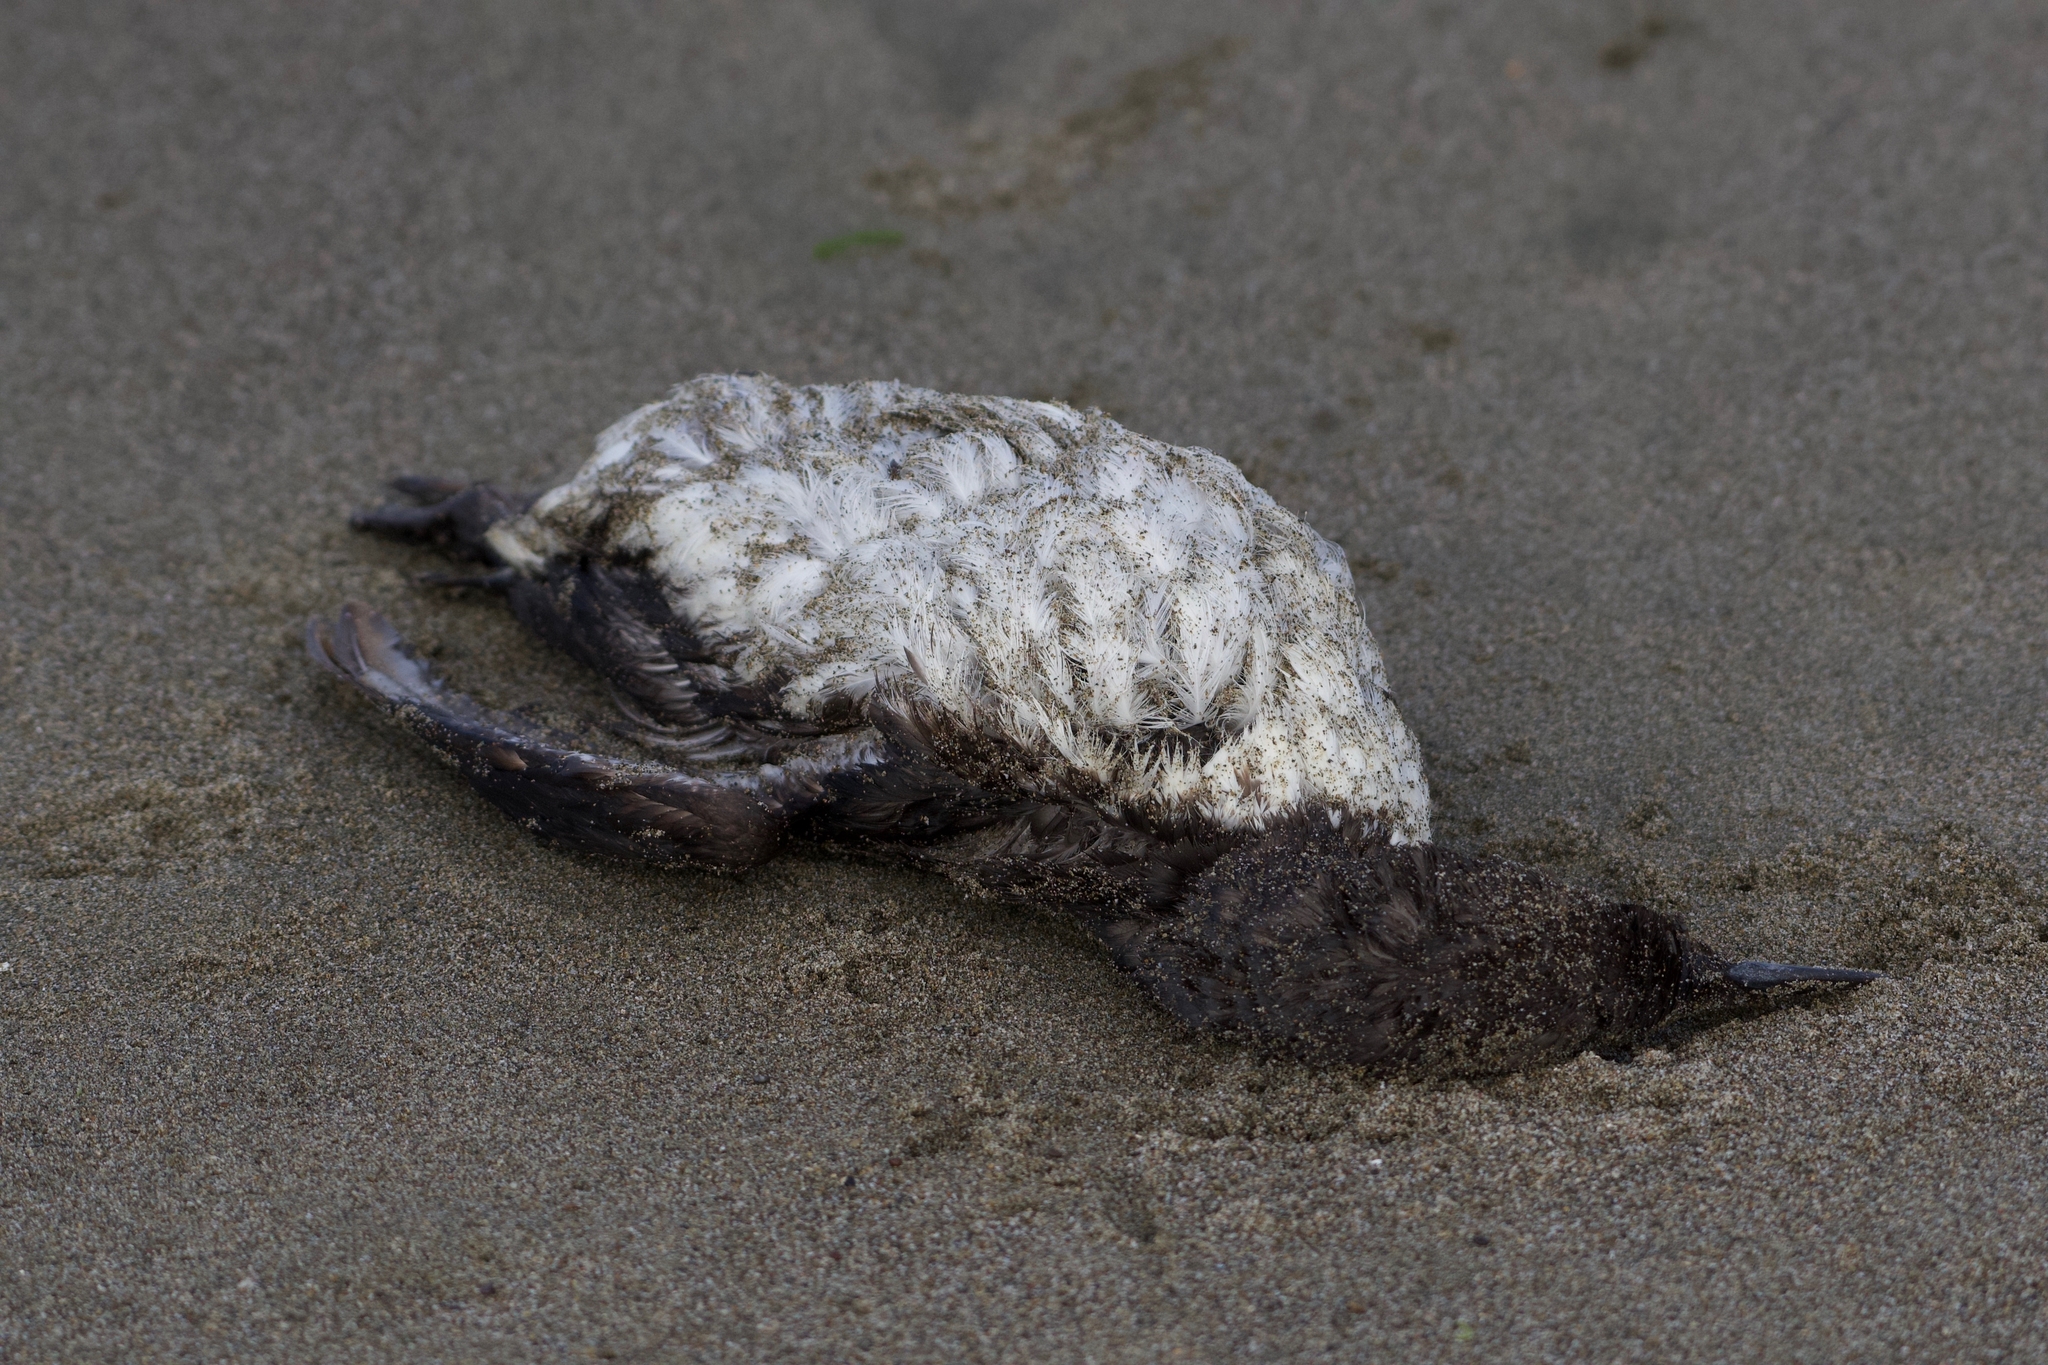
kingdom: Animalia
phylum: Chordata
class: Aves
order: Charadriiformes
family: Alcidae
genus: Uria
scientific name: Uria aalge
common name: Common murre
